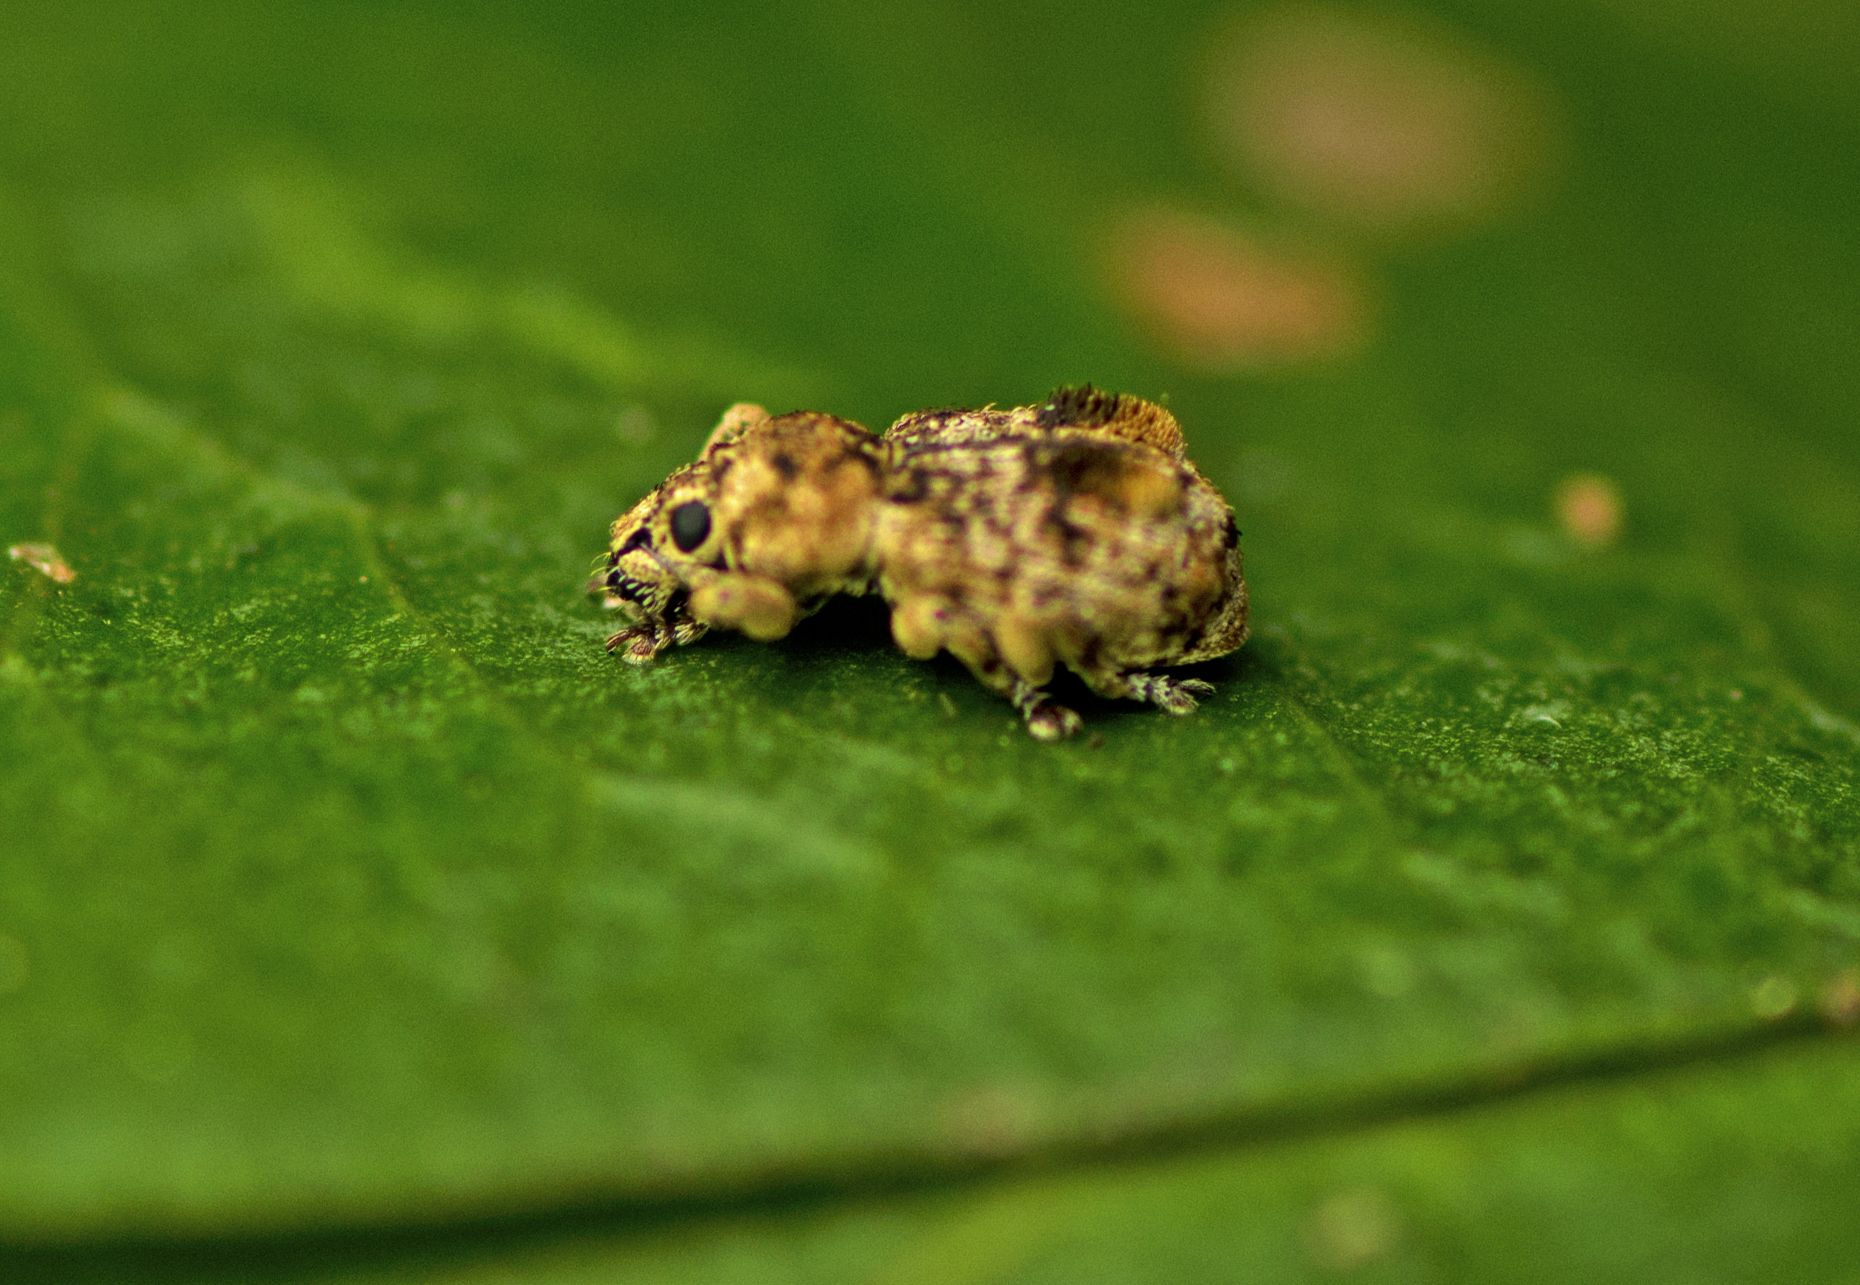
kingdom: Animalia
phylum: Arthropoda
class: Insecta
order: Coleoptera
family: Curculionidae
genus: Reidius
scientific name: Reidius bicristatus
